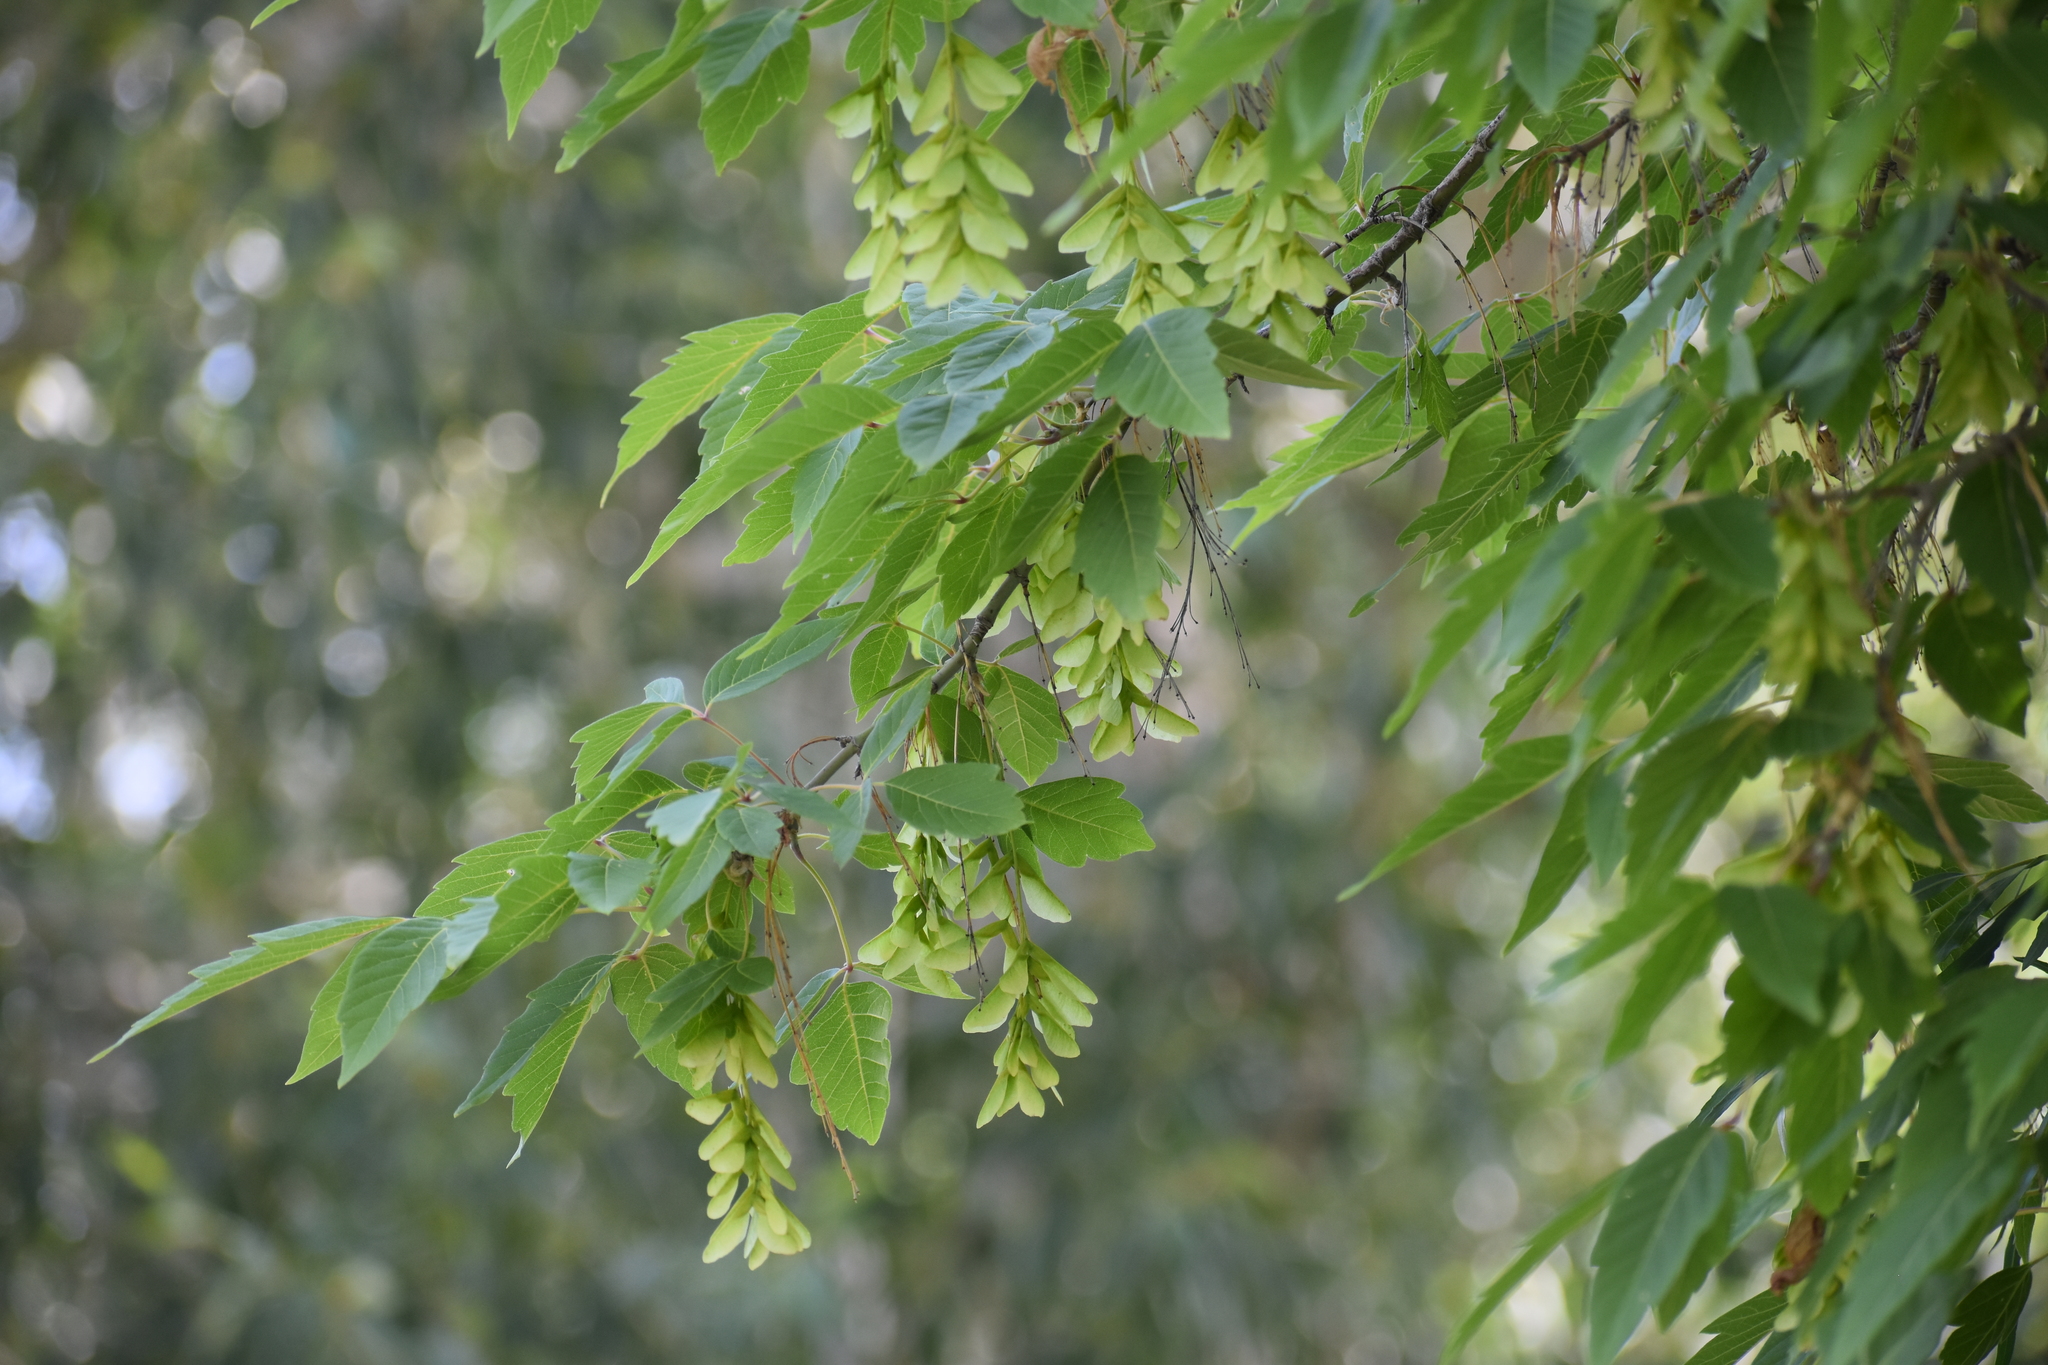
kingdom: Plantae
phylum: Tracheophyta
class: Magnoliopsida
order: Sapindales
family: Sapindaceae
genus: Acer
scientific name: Acer negundo
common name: Ashleaf maple
